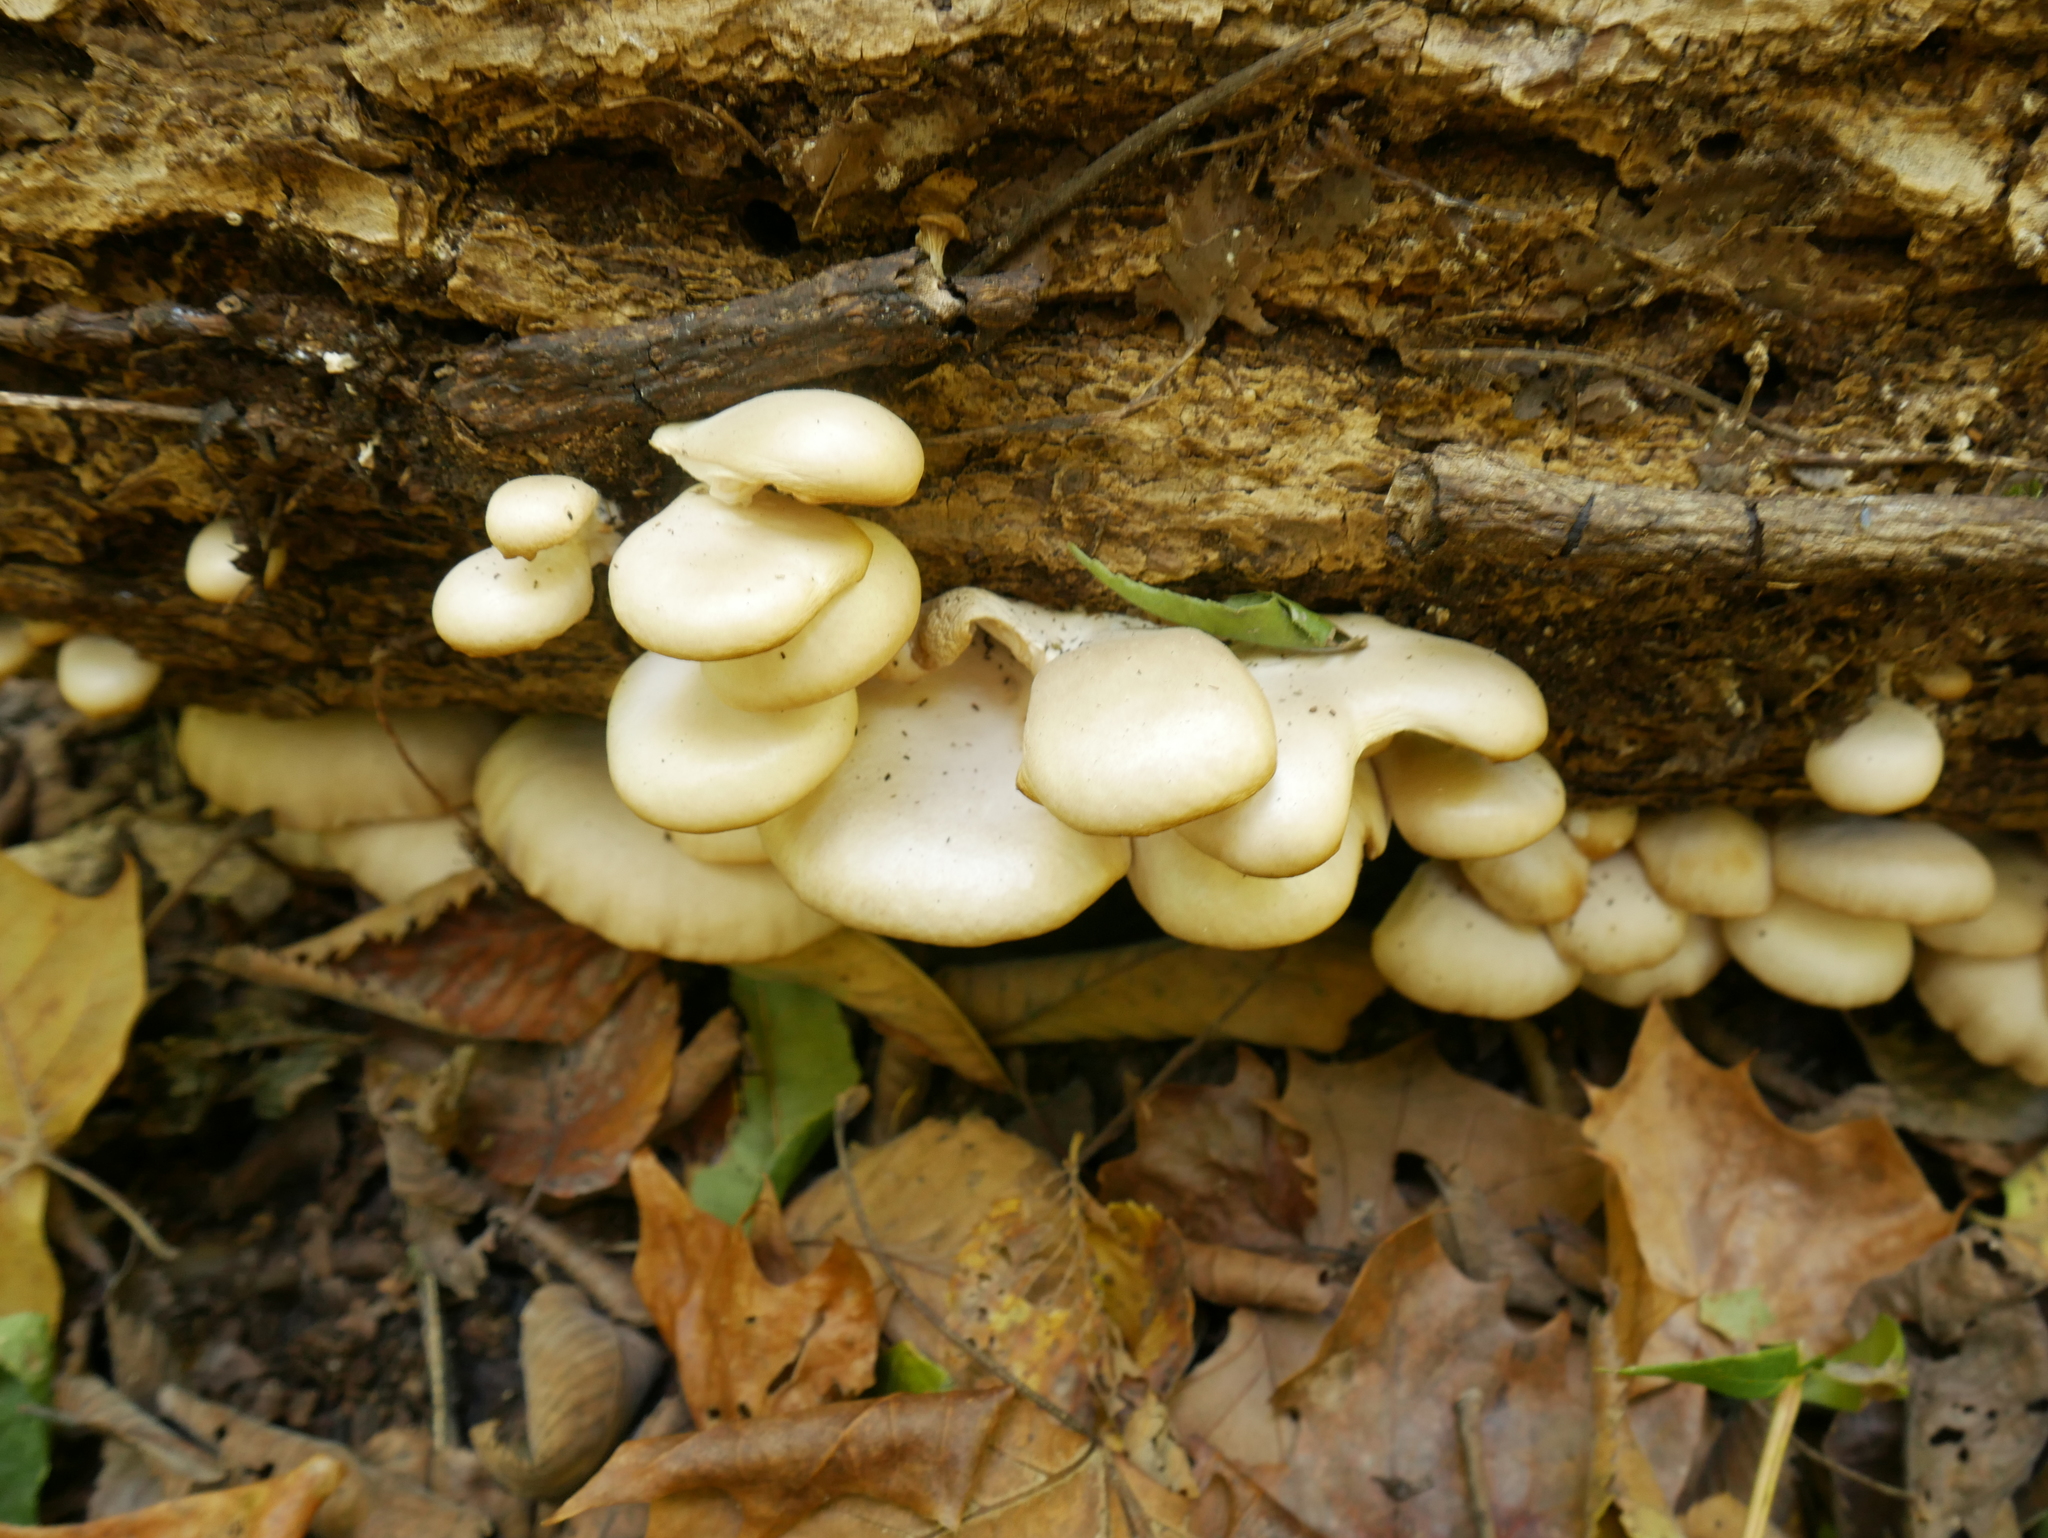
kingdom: Fungi
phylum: Basidiomycota
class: Agaricomycetes
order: Agaricales
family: Pleurotaceae
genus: Pleurotus
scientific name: Pleurotus pulmonarius
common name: Pale oyster
